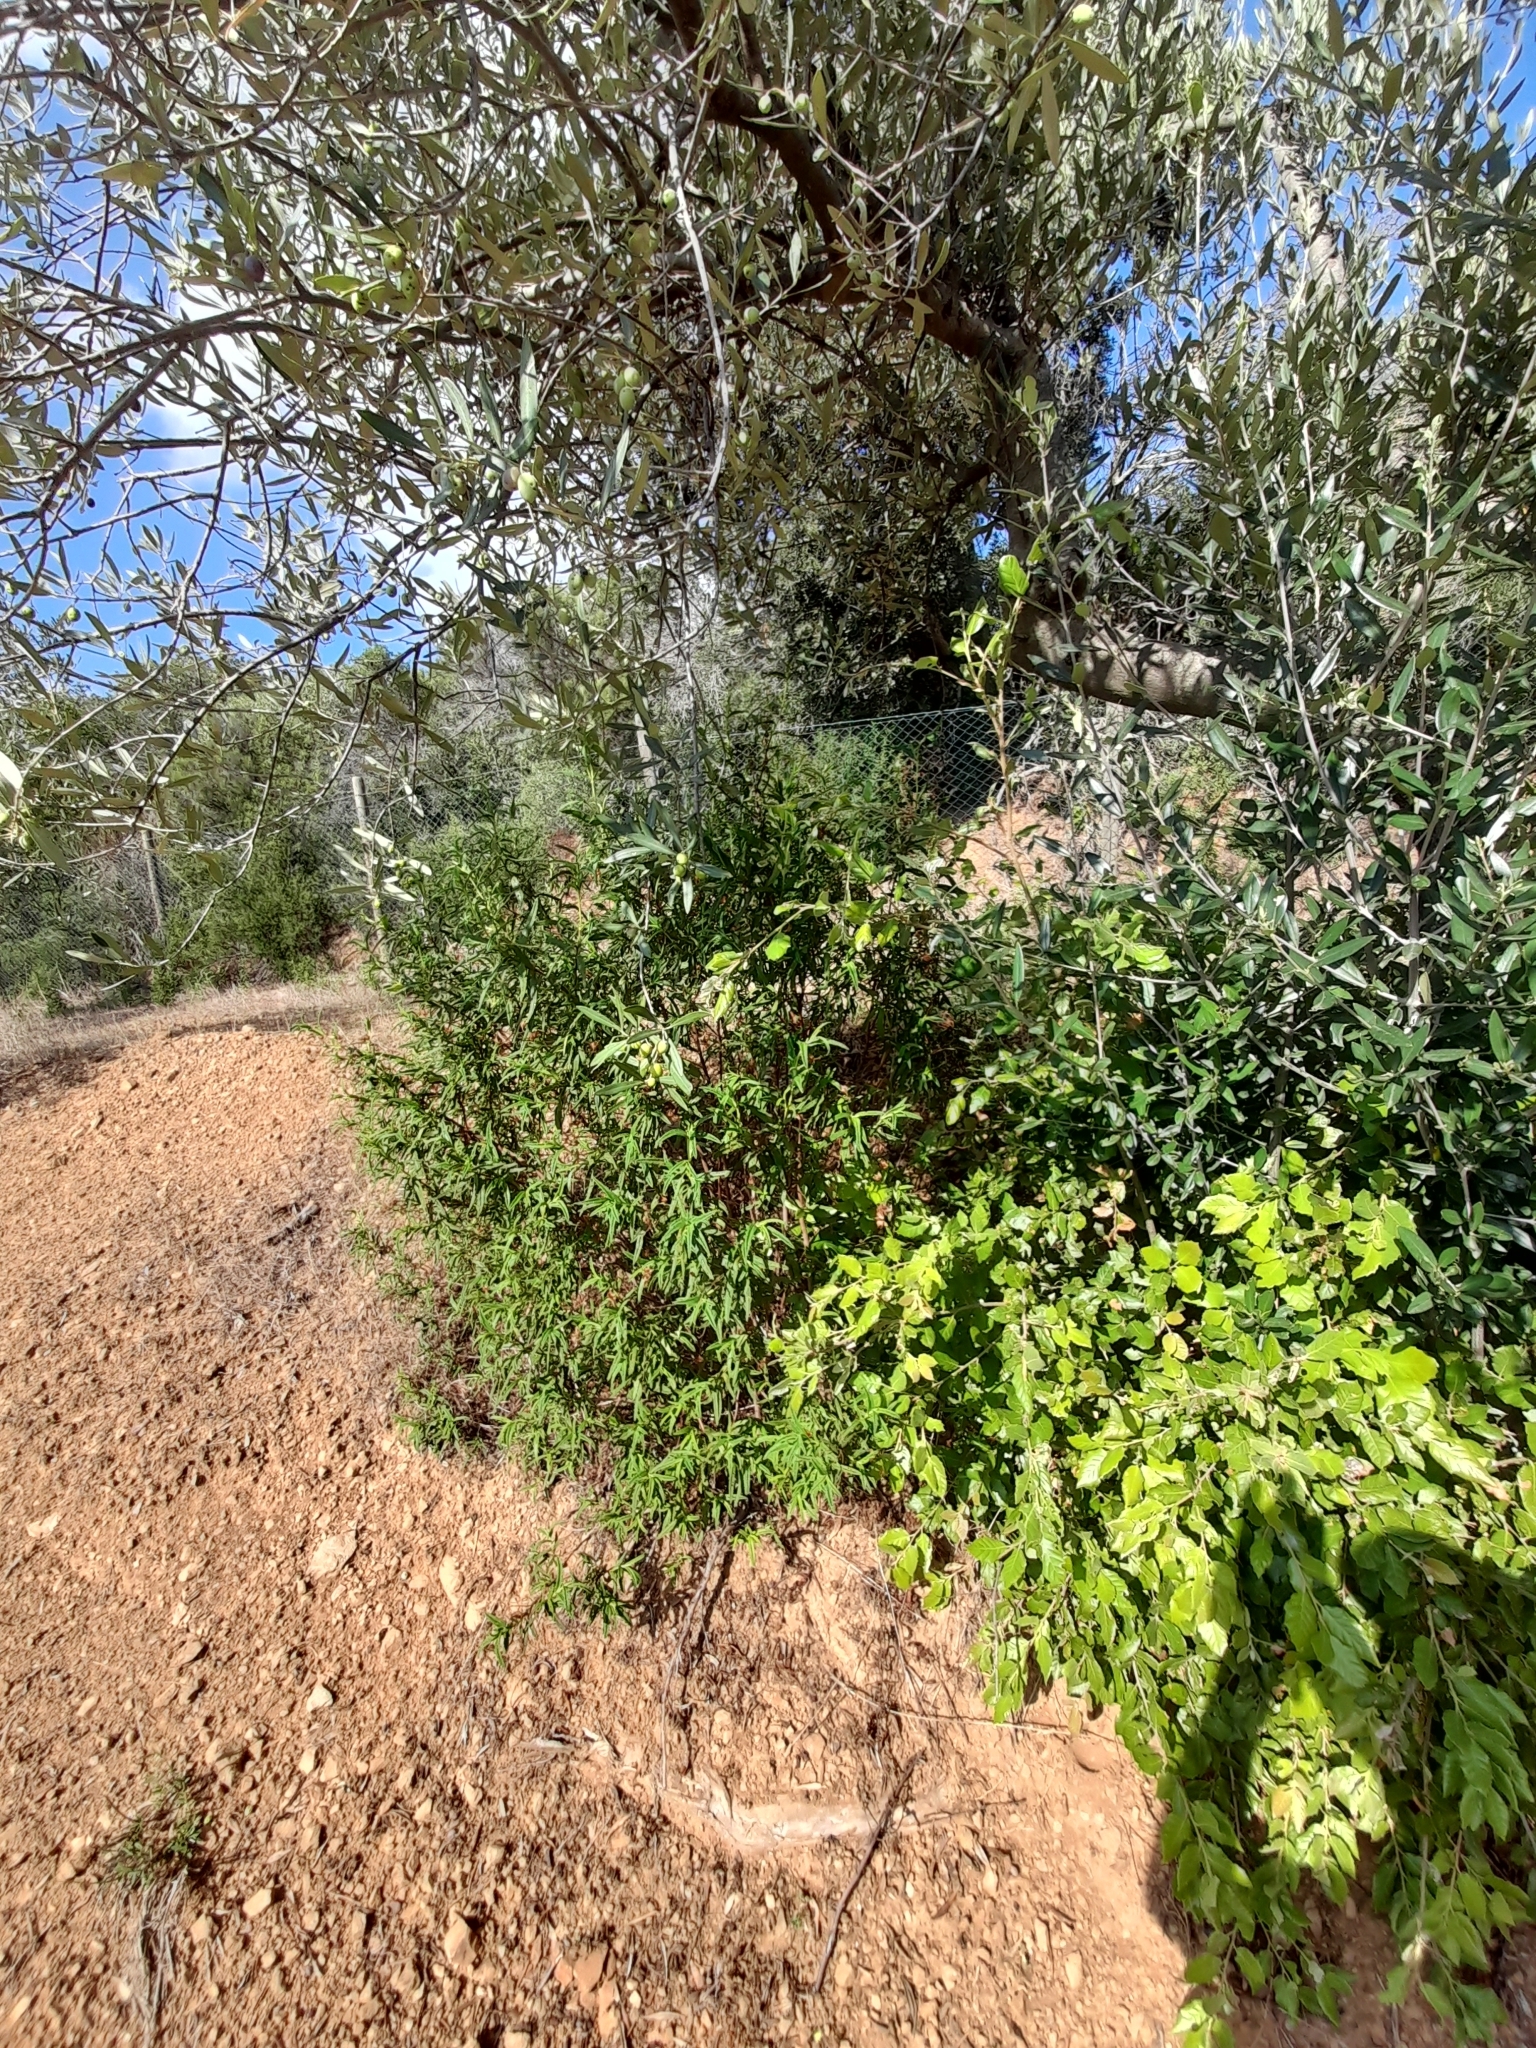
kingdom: Plantae
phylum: Tracheophyta
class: Magnoliopsida
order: Malvales
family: Cistaceae
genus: Cistus
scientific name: Cistus monspeliensis
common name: Montpelier cistus
